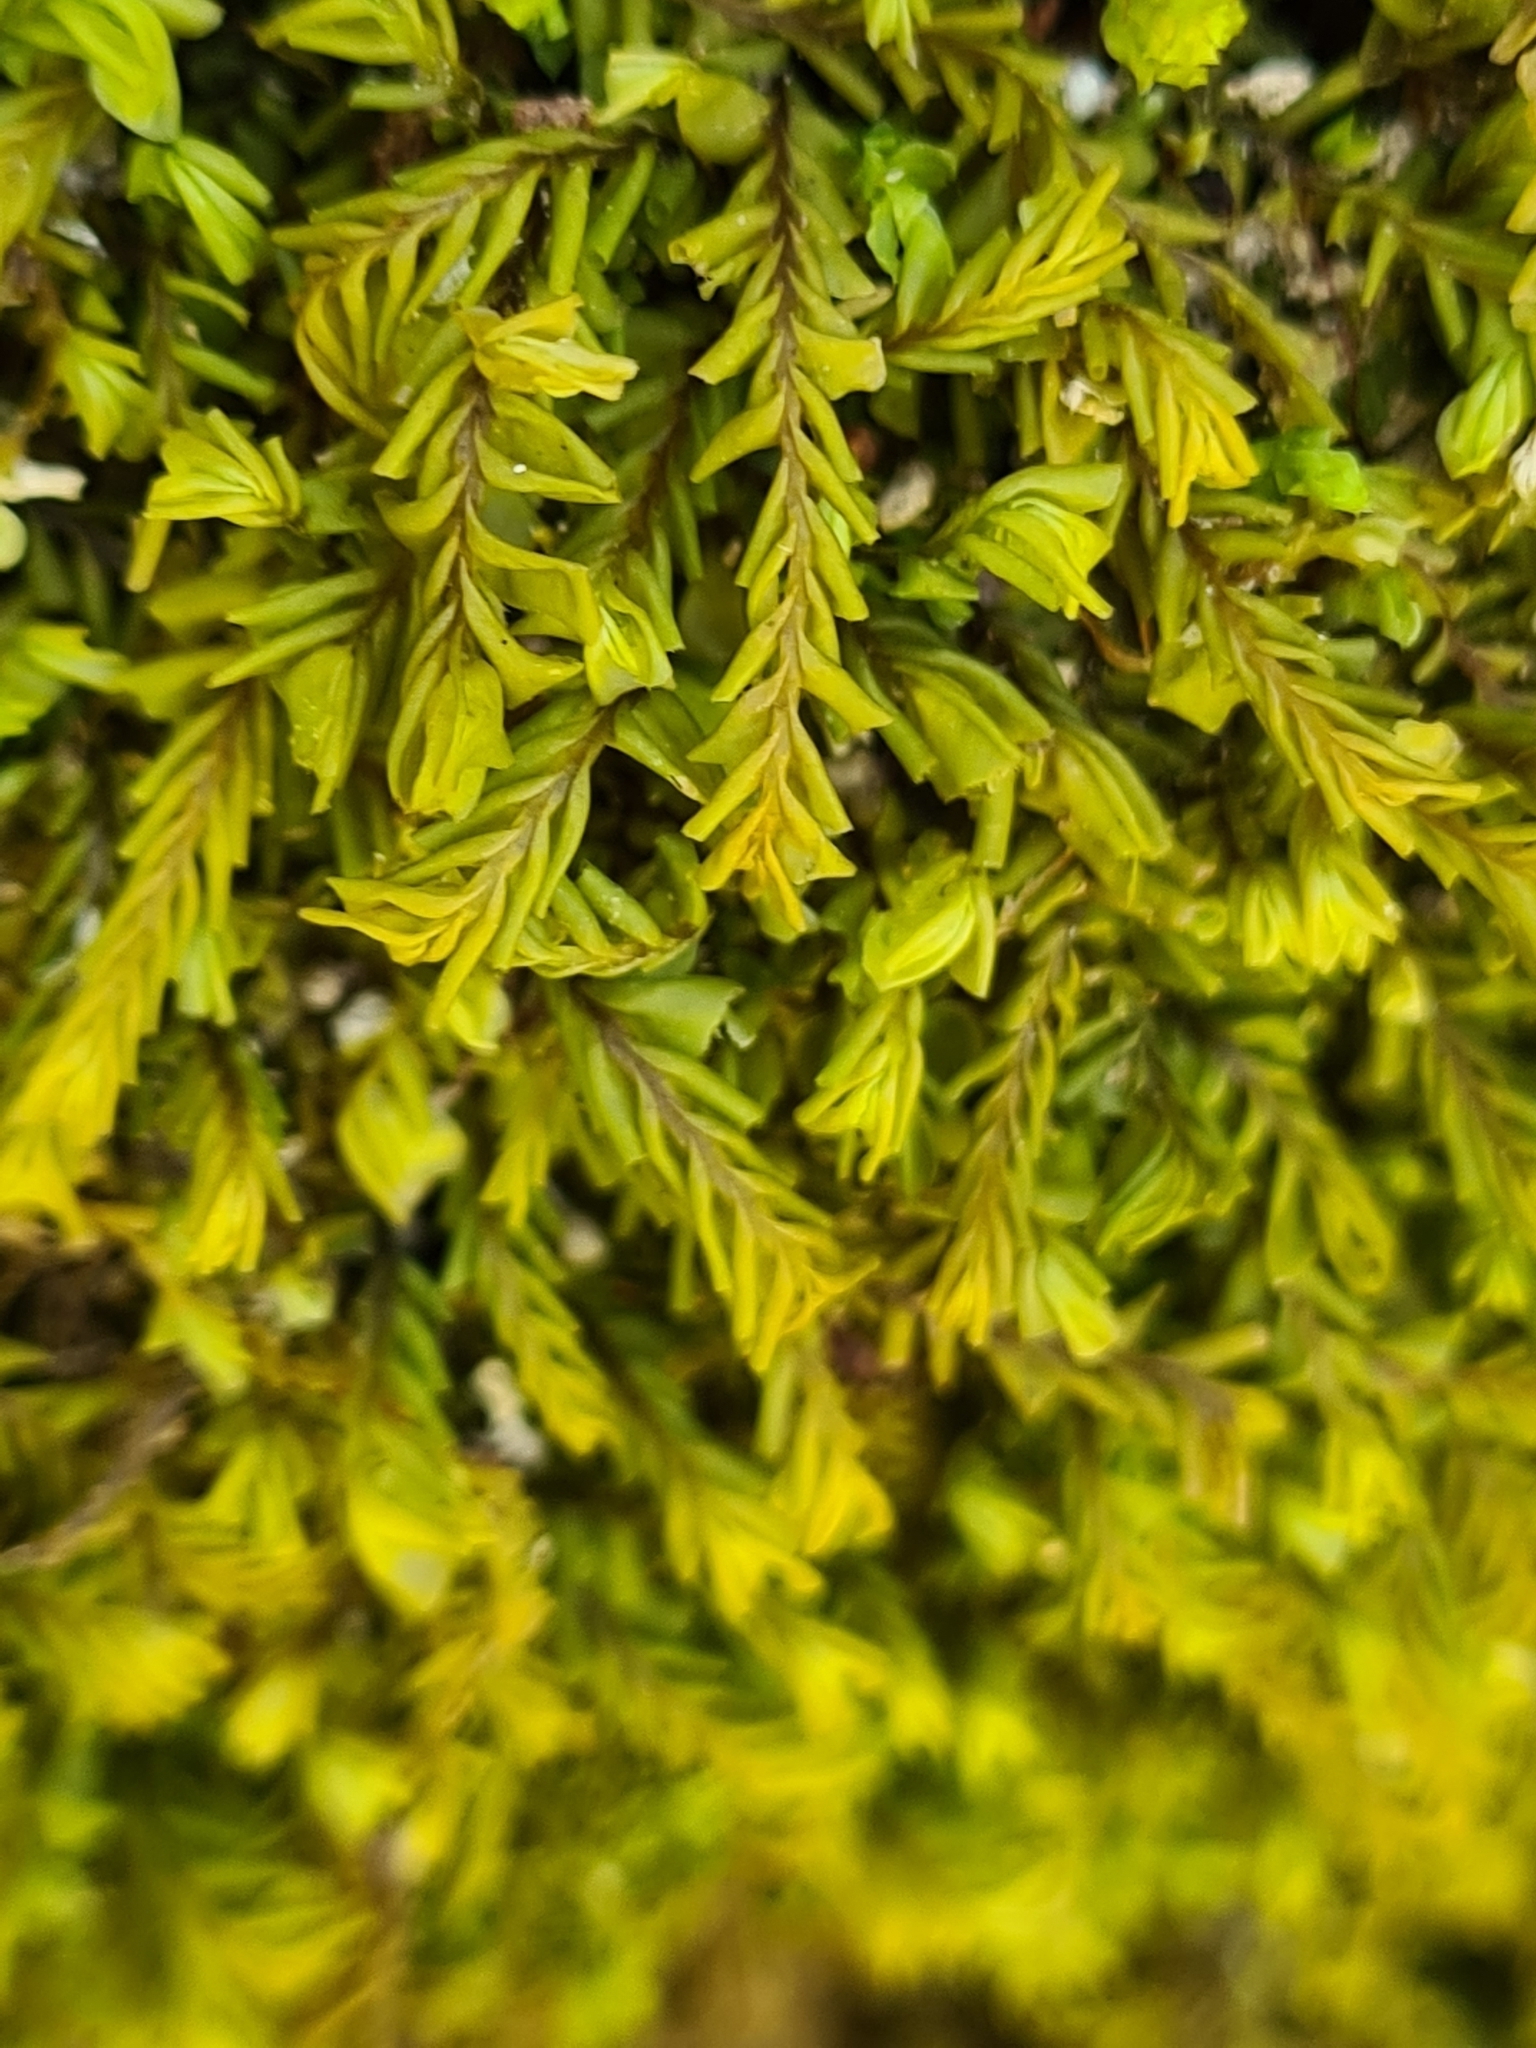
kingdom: Plantae
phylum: Marchantiophyta
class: Jungermanniopsida
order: Jungermanniales
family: Plagiochilaceae
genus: Plagiochila
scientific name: Plagiochila porelloides
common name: Lesser featherwort
